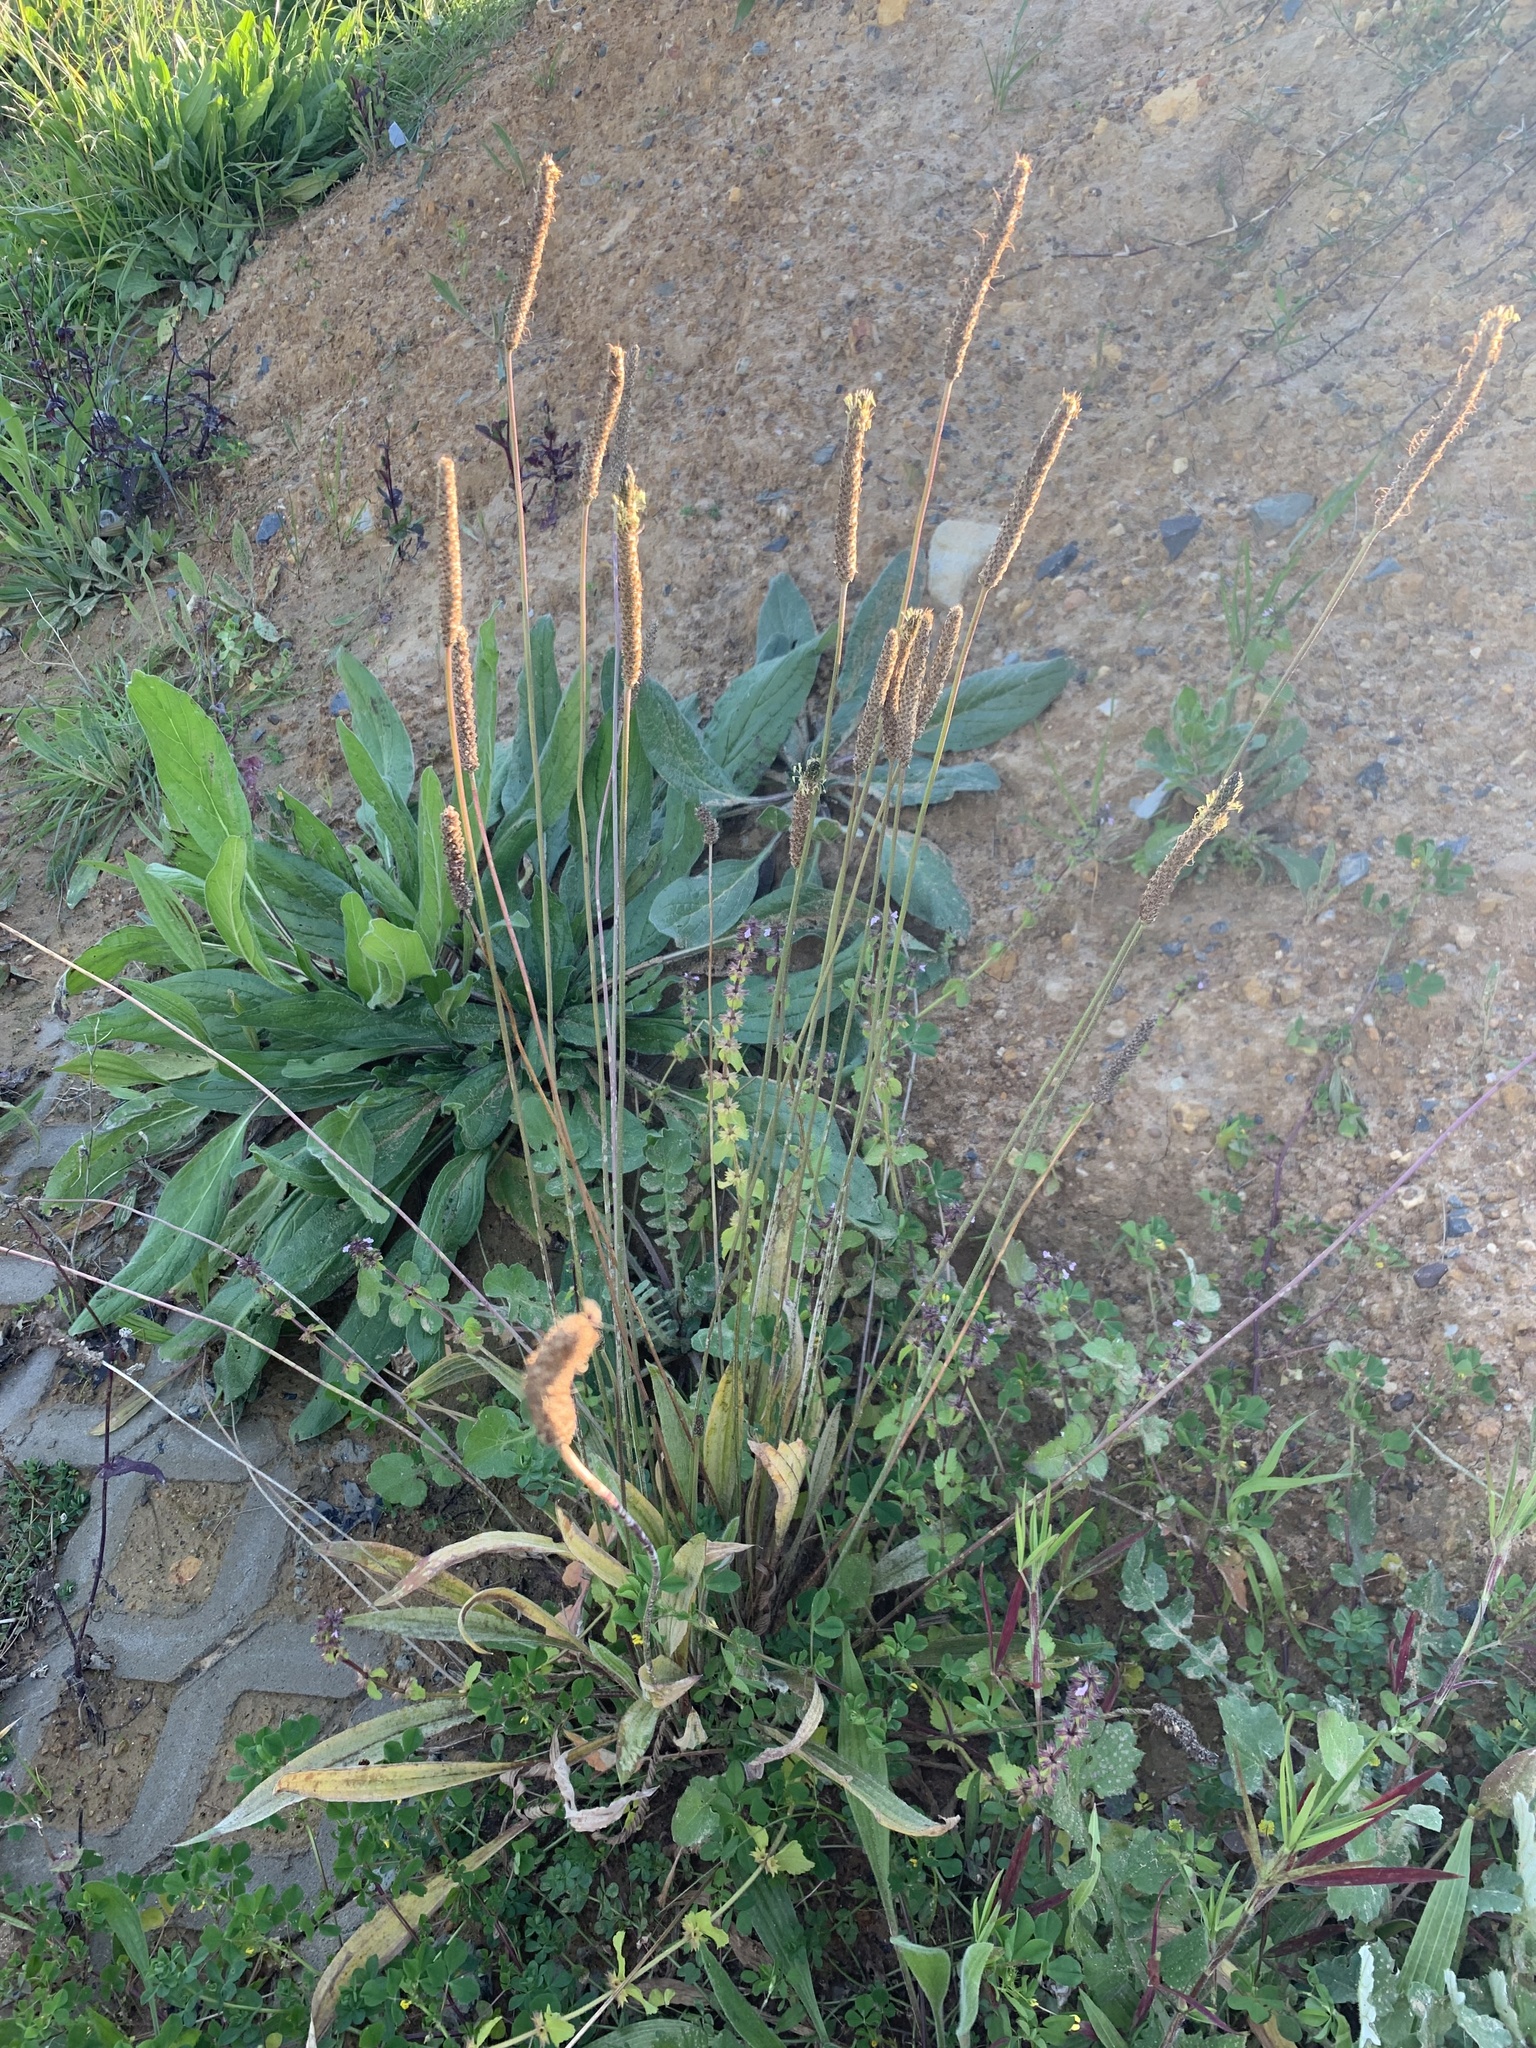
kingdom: Plantae
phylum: Tracheophyta
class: Magnoliopsida
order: Lamiales
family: Plantaginaceae
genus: Plantago
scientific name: Plantago lanceolata
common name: Ribwort plantain
